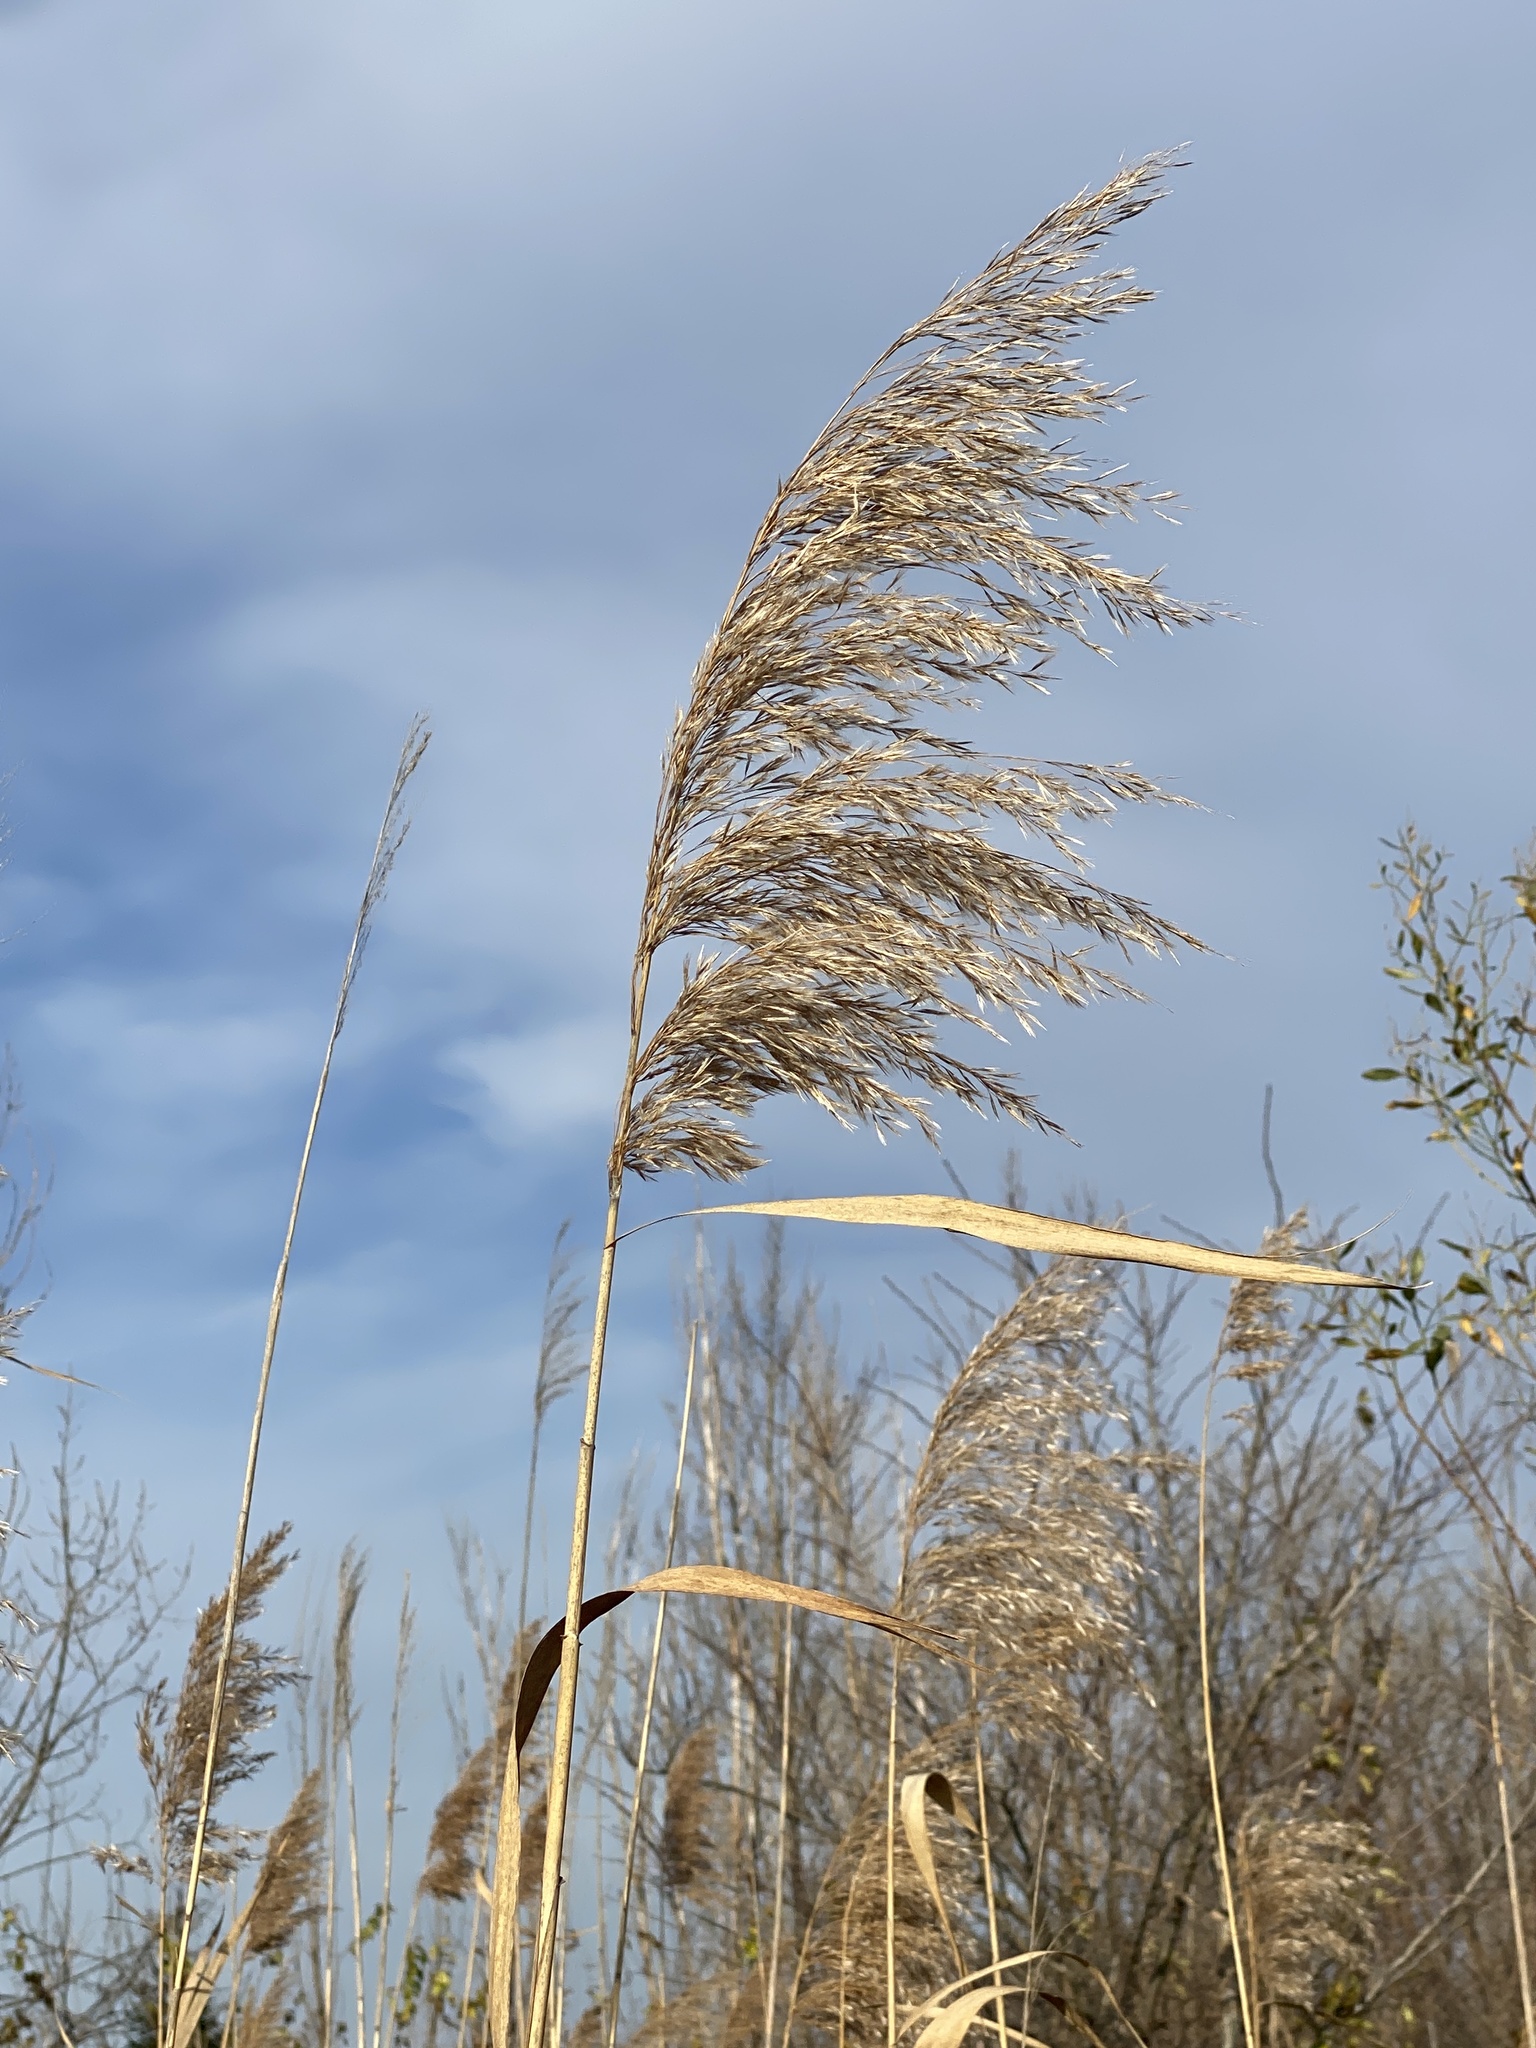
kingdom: Plantae
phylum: Tracheophyta
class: Liliopsida
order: Poales
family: Poaceae
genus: Phragmites
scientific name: Phragmites australis
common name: Common reed
